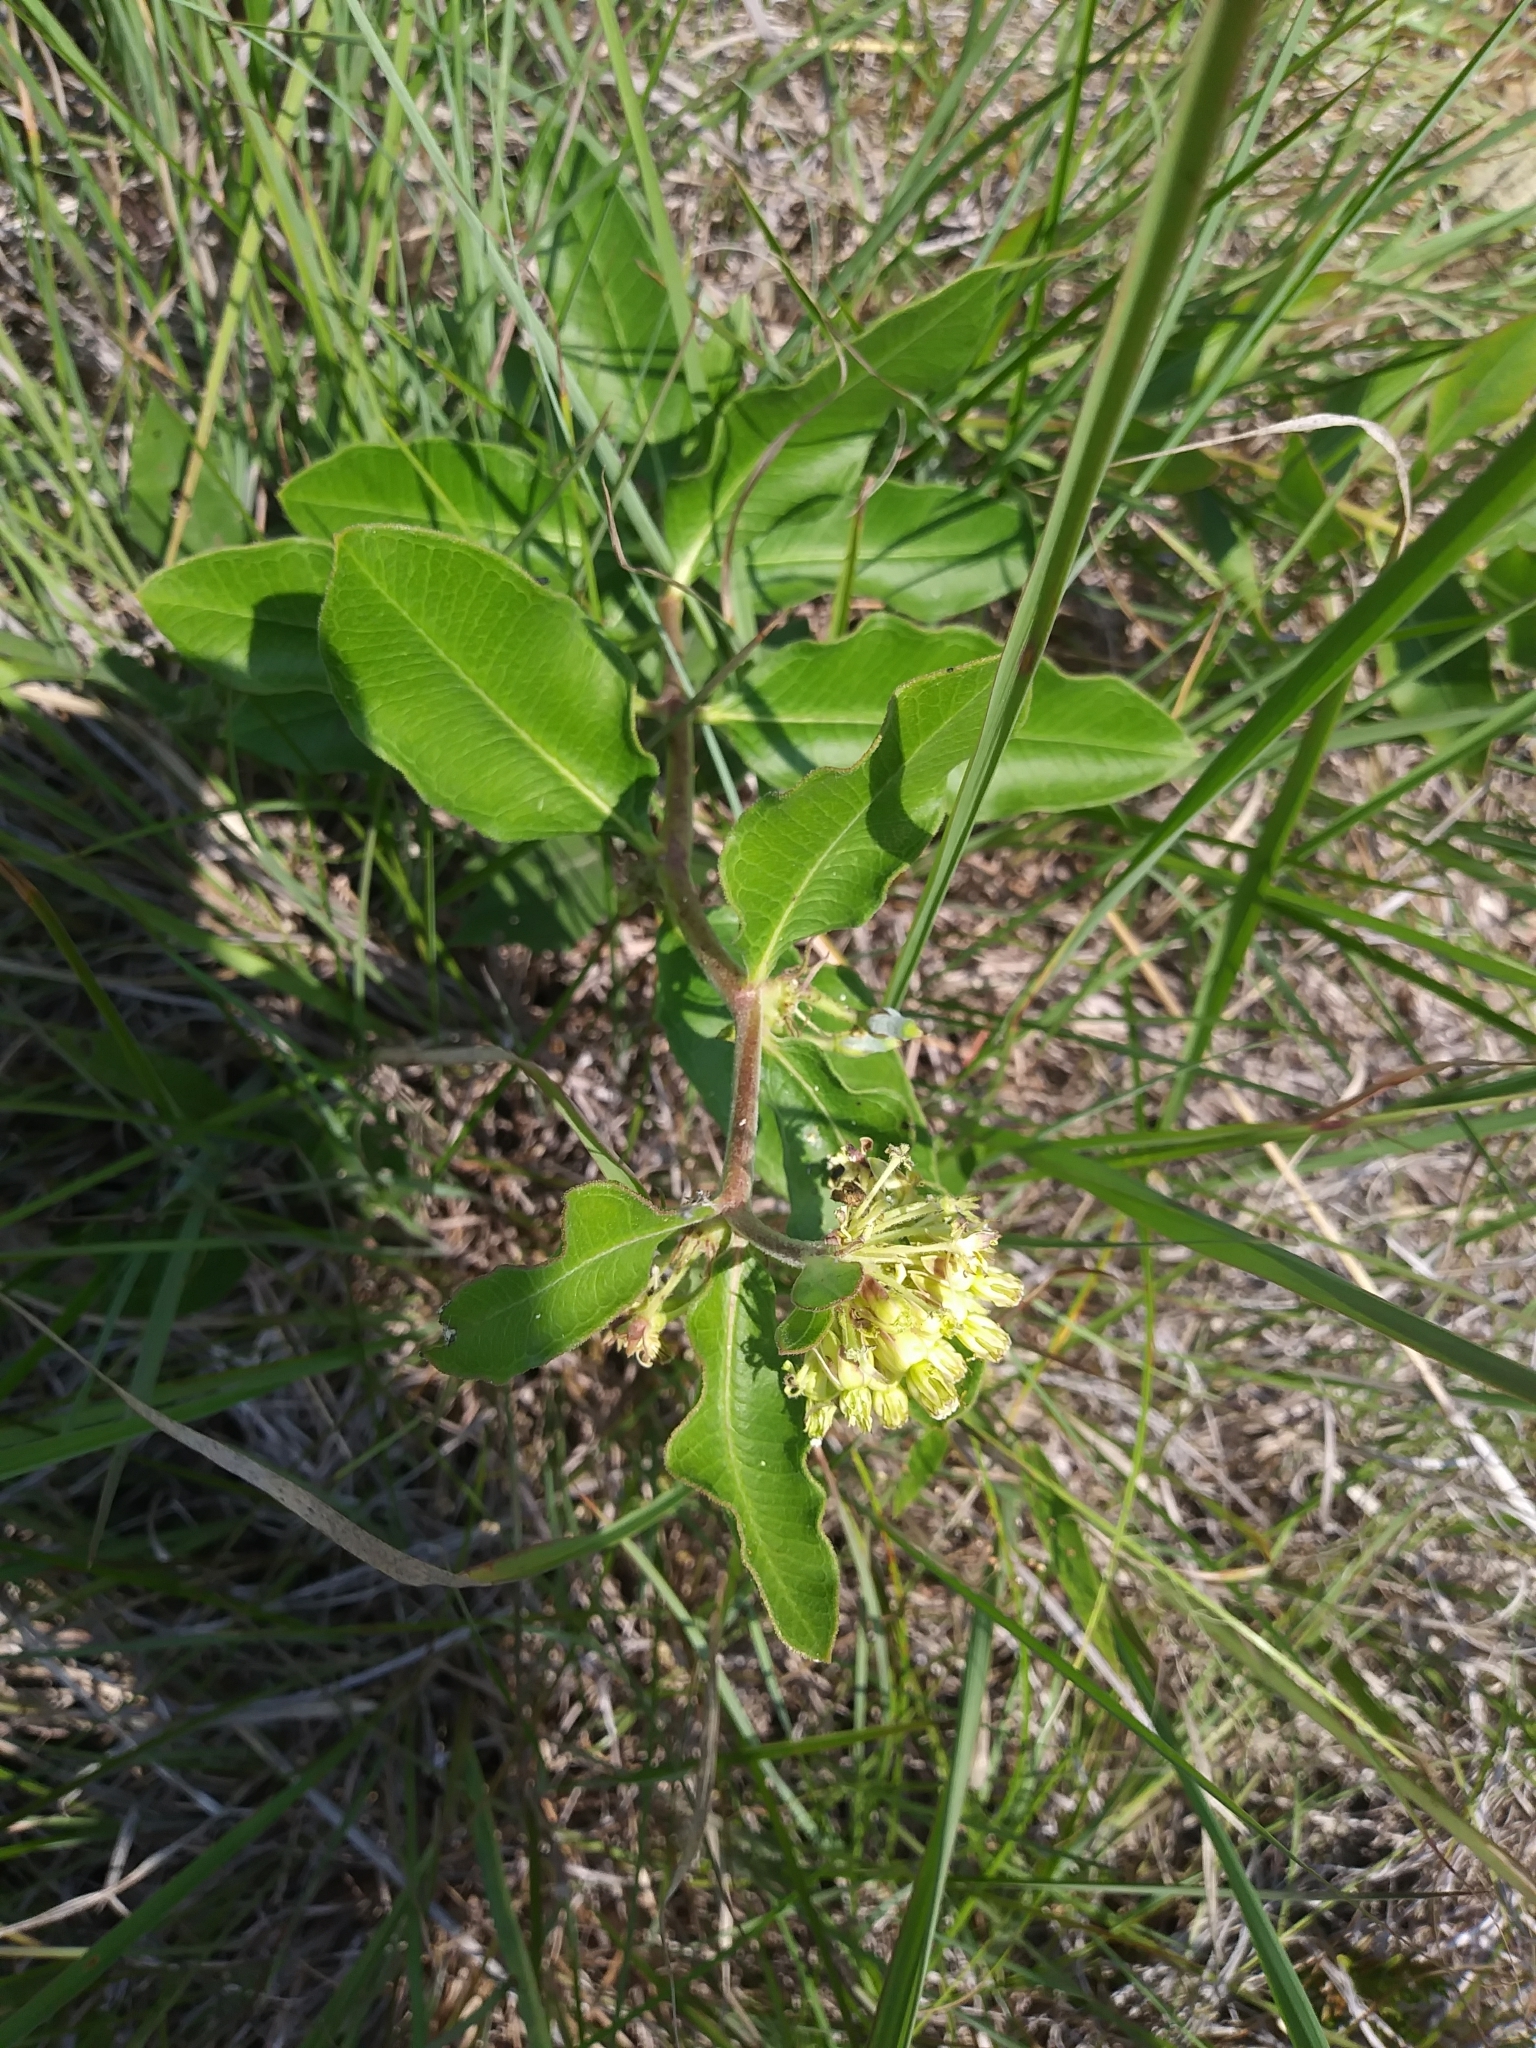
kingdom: Plantae
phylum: Tracheophyta
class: Magnoliopsida
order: Gentianales
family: Apocynaceae
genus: Asclepias
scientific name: Asclepias viridiflora
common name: Green comet milkweed
